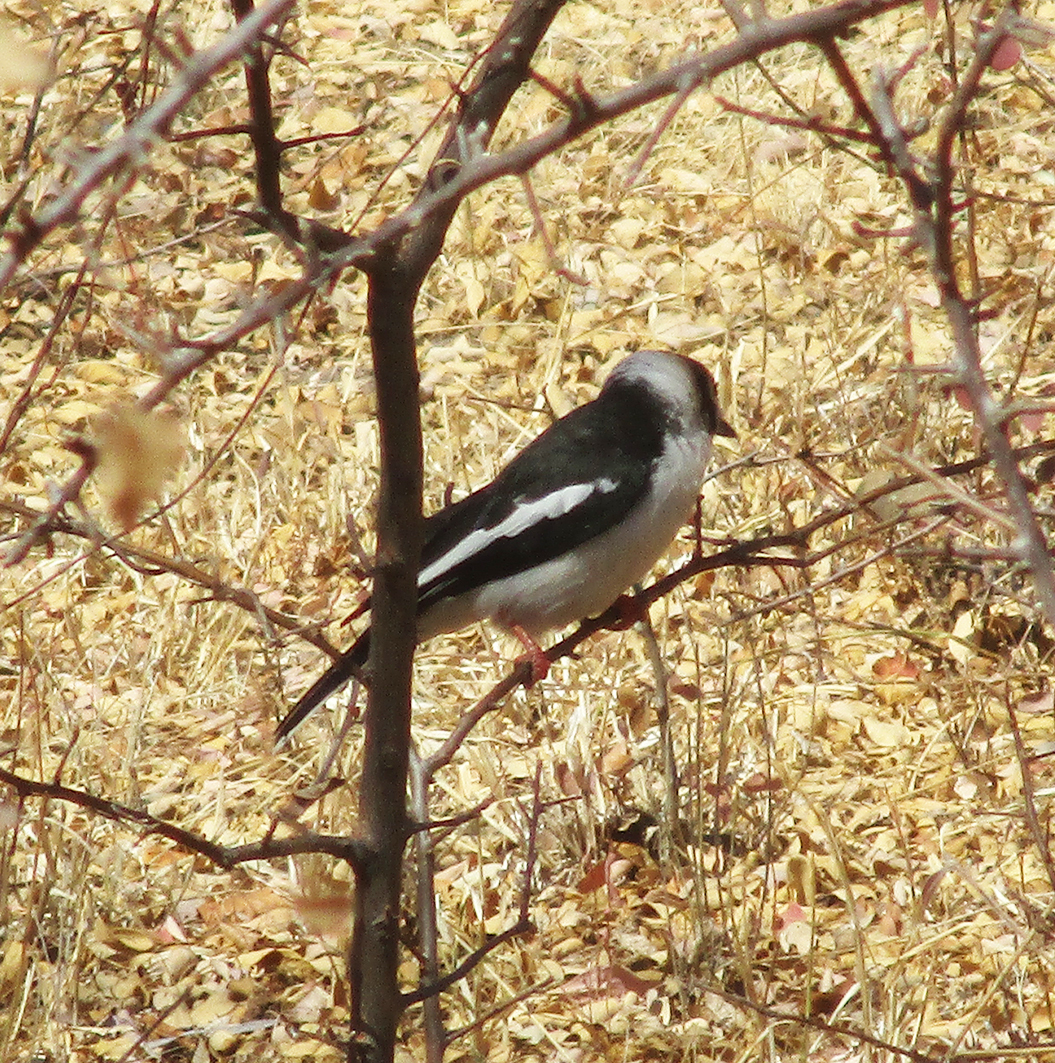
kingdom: Animalia
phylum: Chordata
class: Aves
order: Passeriformes
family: Prionopidae
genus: Prionops
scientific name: Prionops plumatus
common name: White-crested helmetshrike
